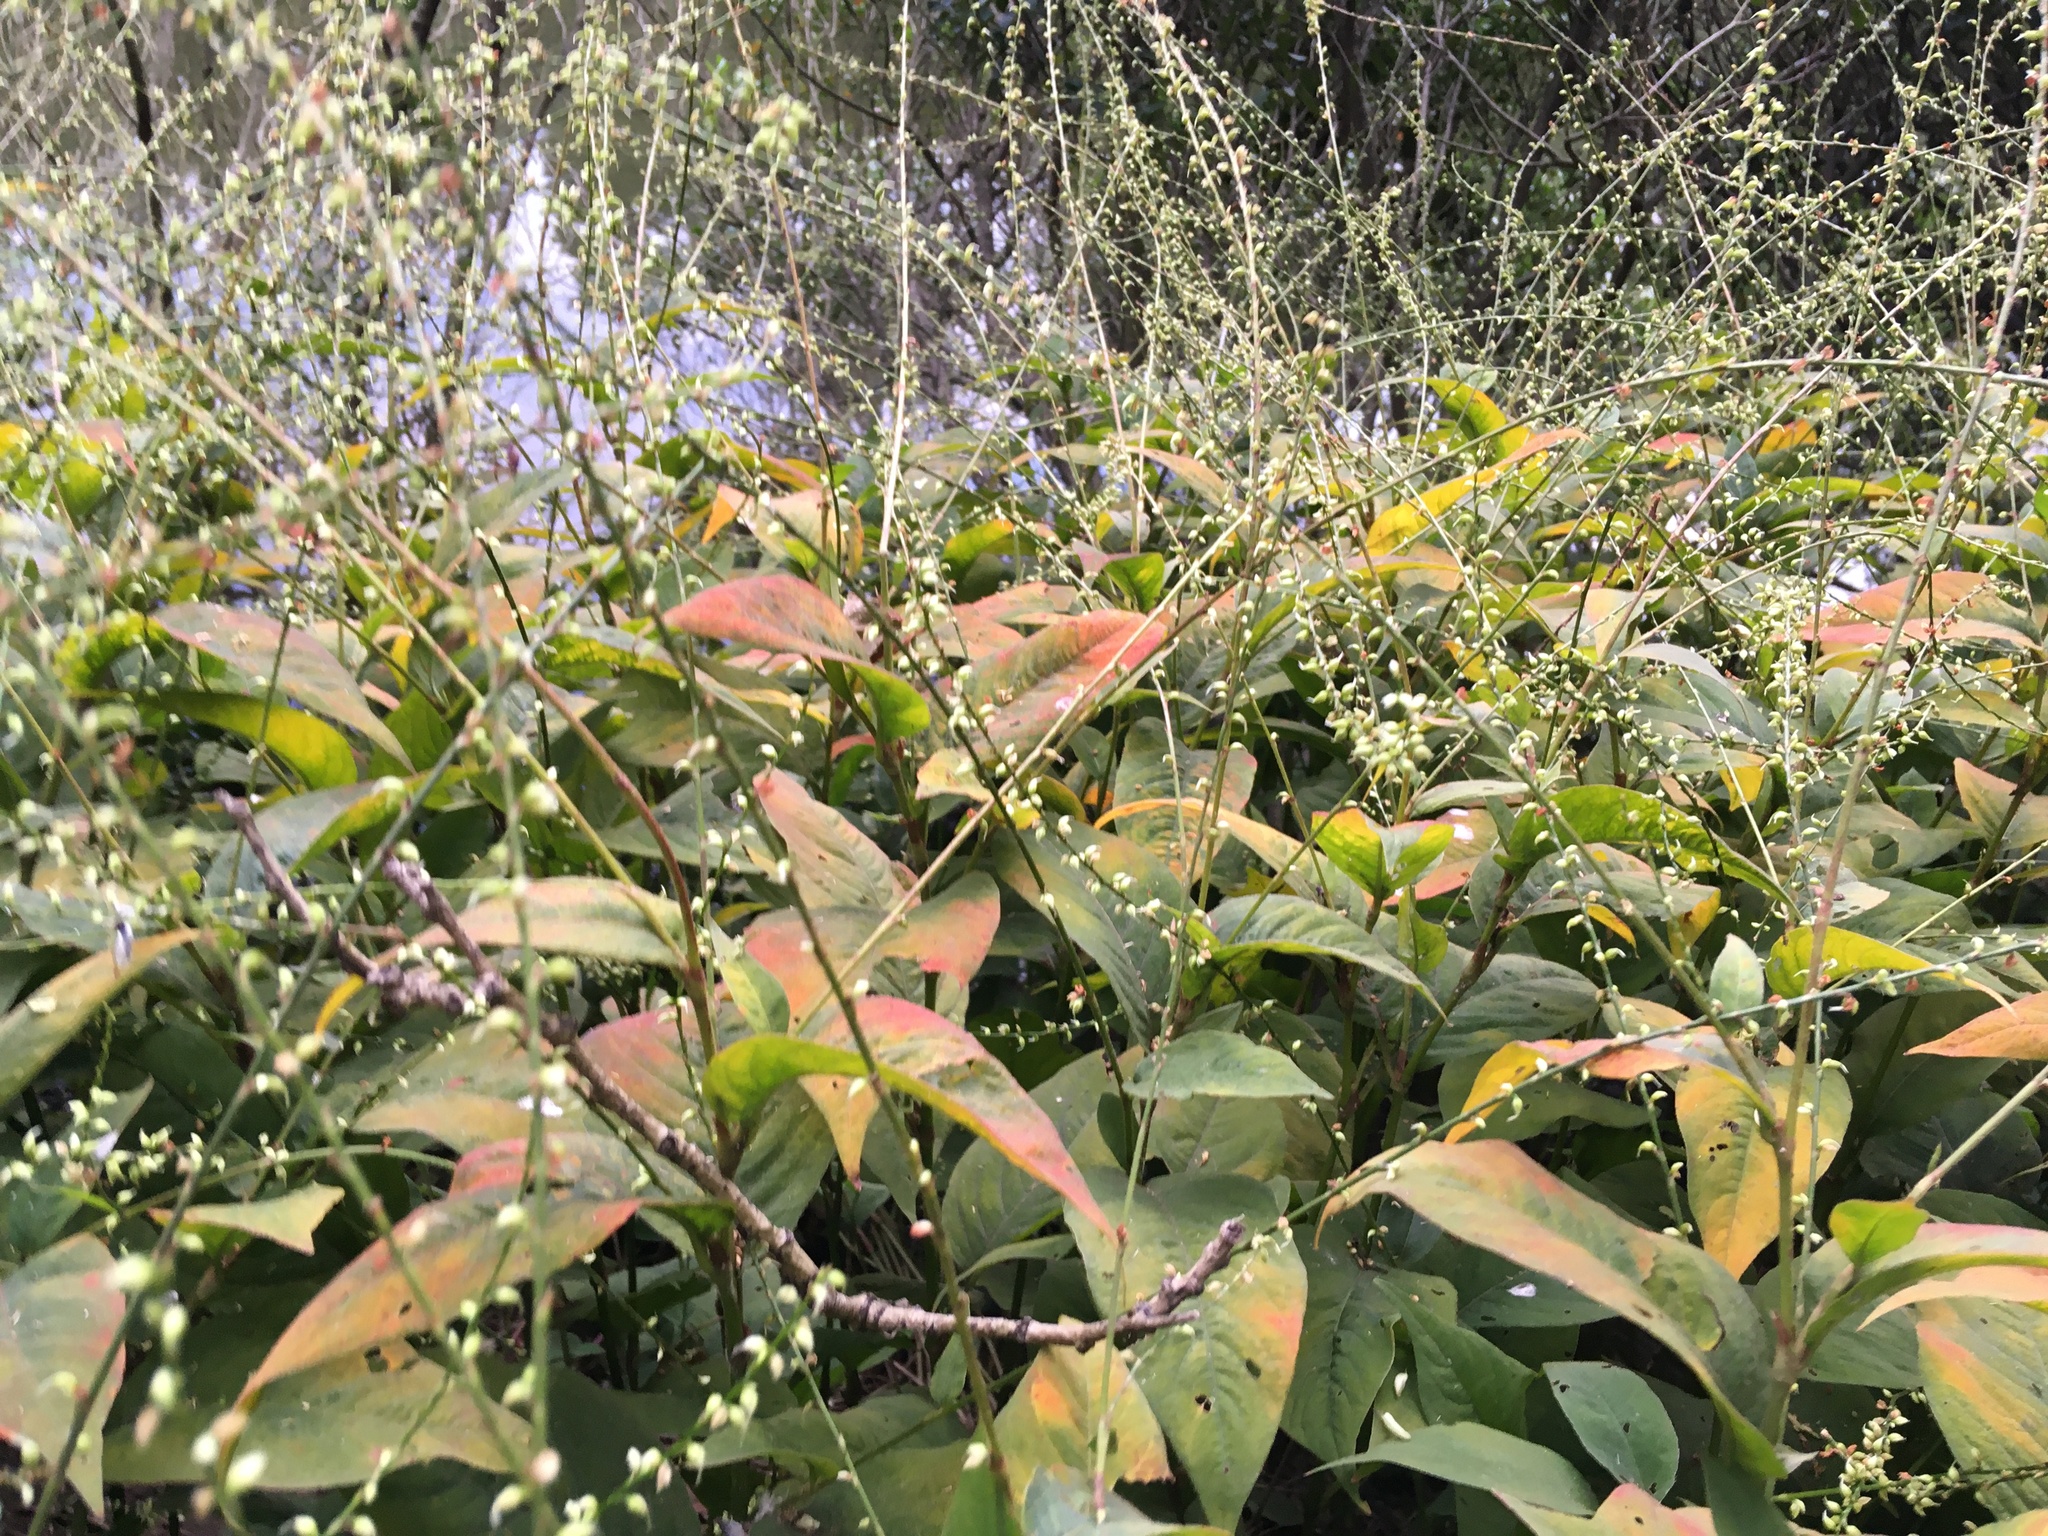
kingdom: Plantae
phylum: Tracheophyta
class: Magnoliopsida
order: Caryophyllales
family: Polygonaceae
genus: Persicaria
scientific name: Persicaria virginiana
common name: Jumpseed
